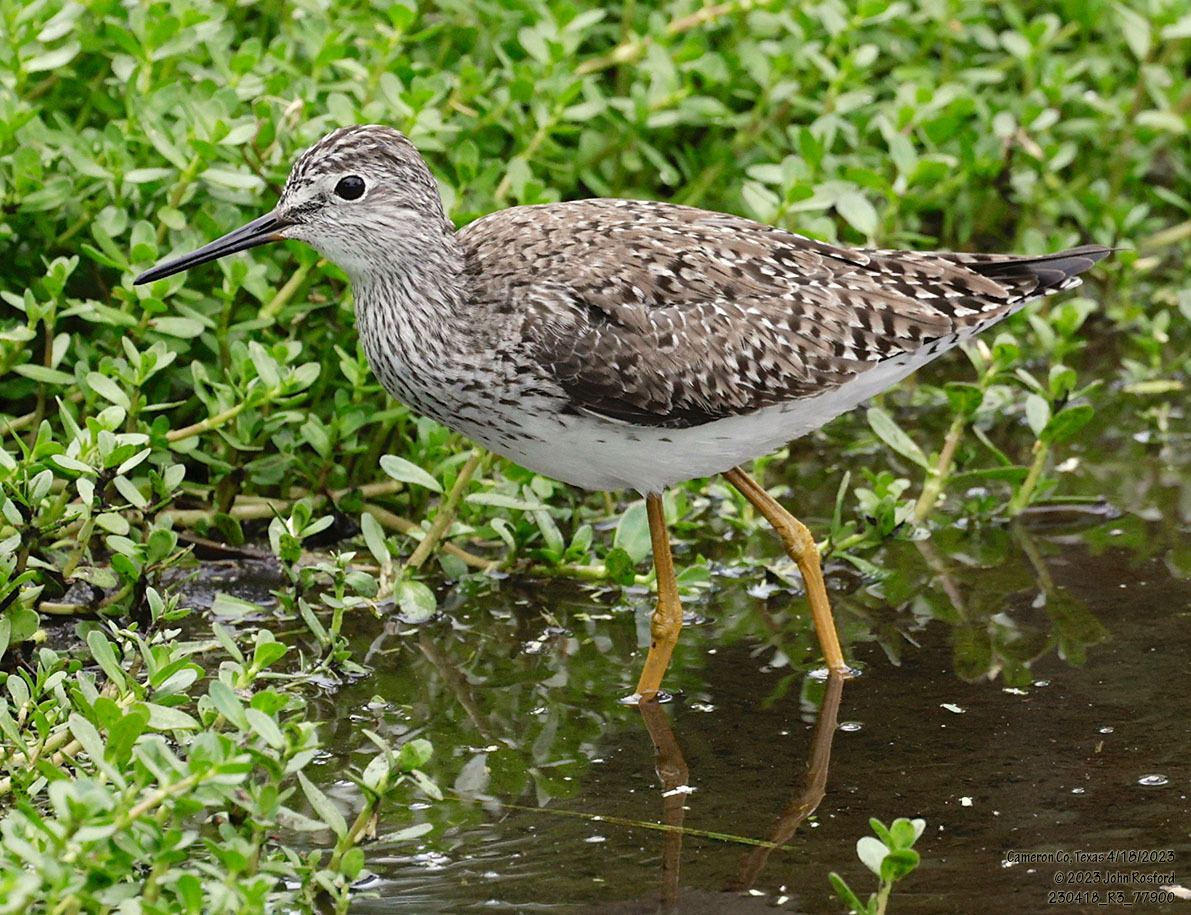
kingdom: Animalia
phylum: Chordata
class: Aves
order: Charadriiformes
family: Scolopacidae
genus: Tringa
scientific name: Tringa flavipes
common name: Lesser yellowlegs
